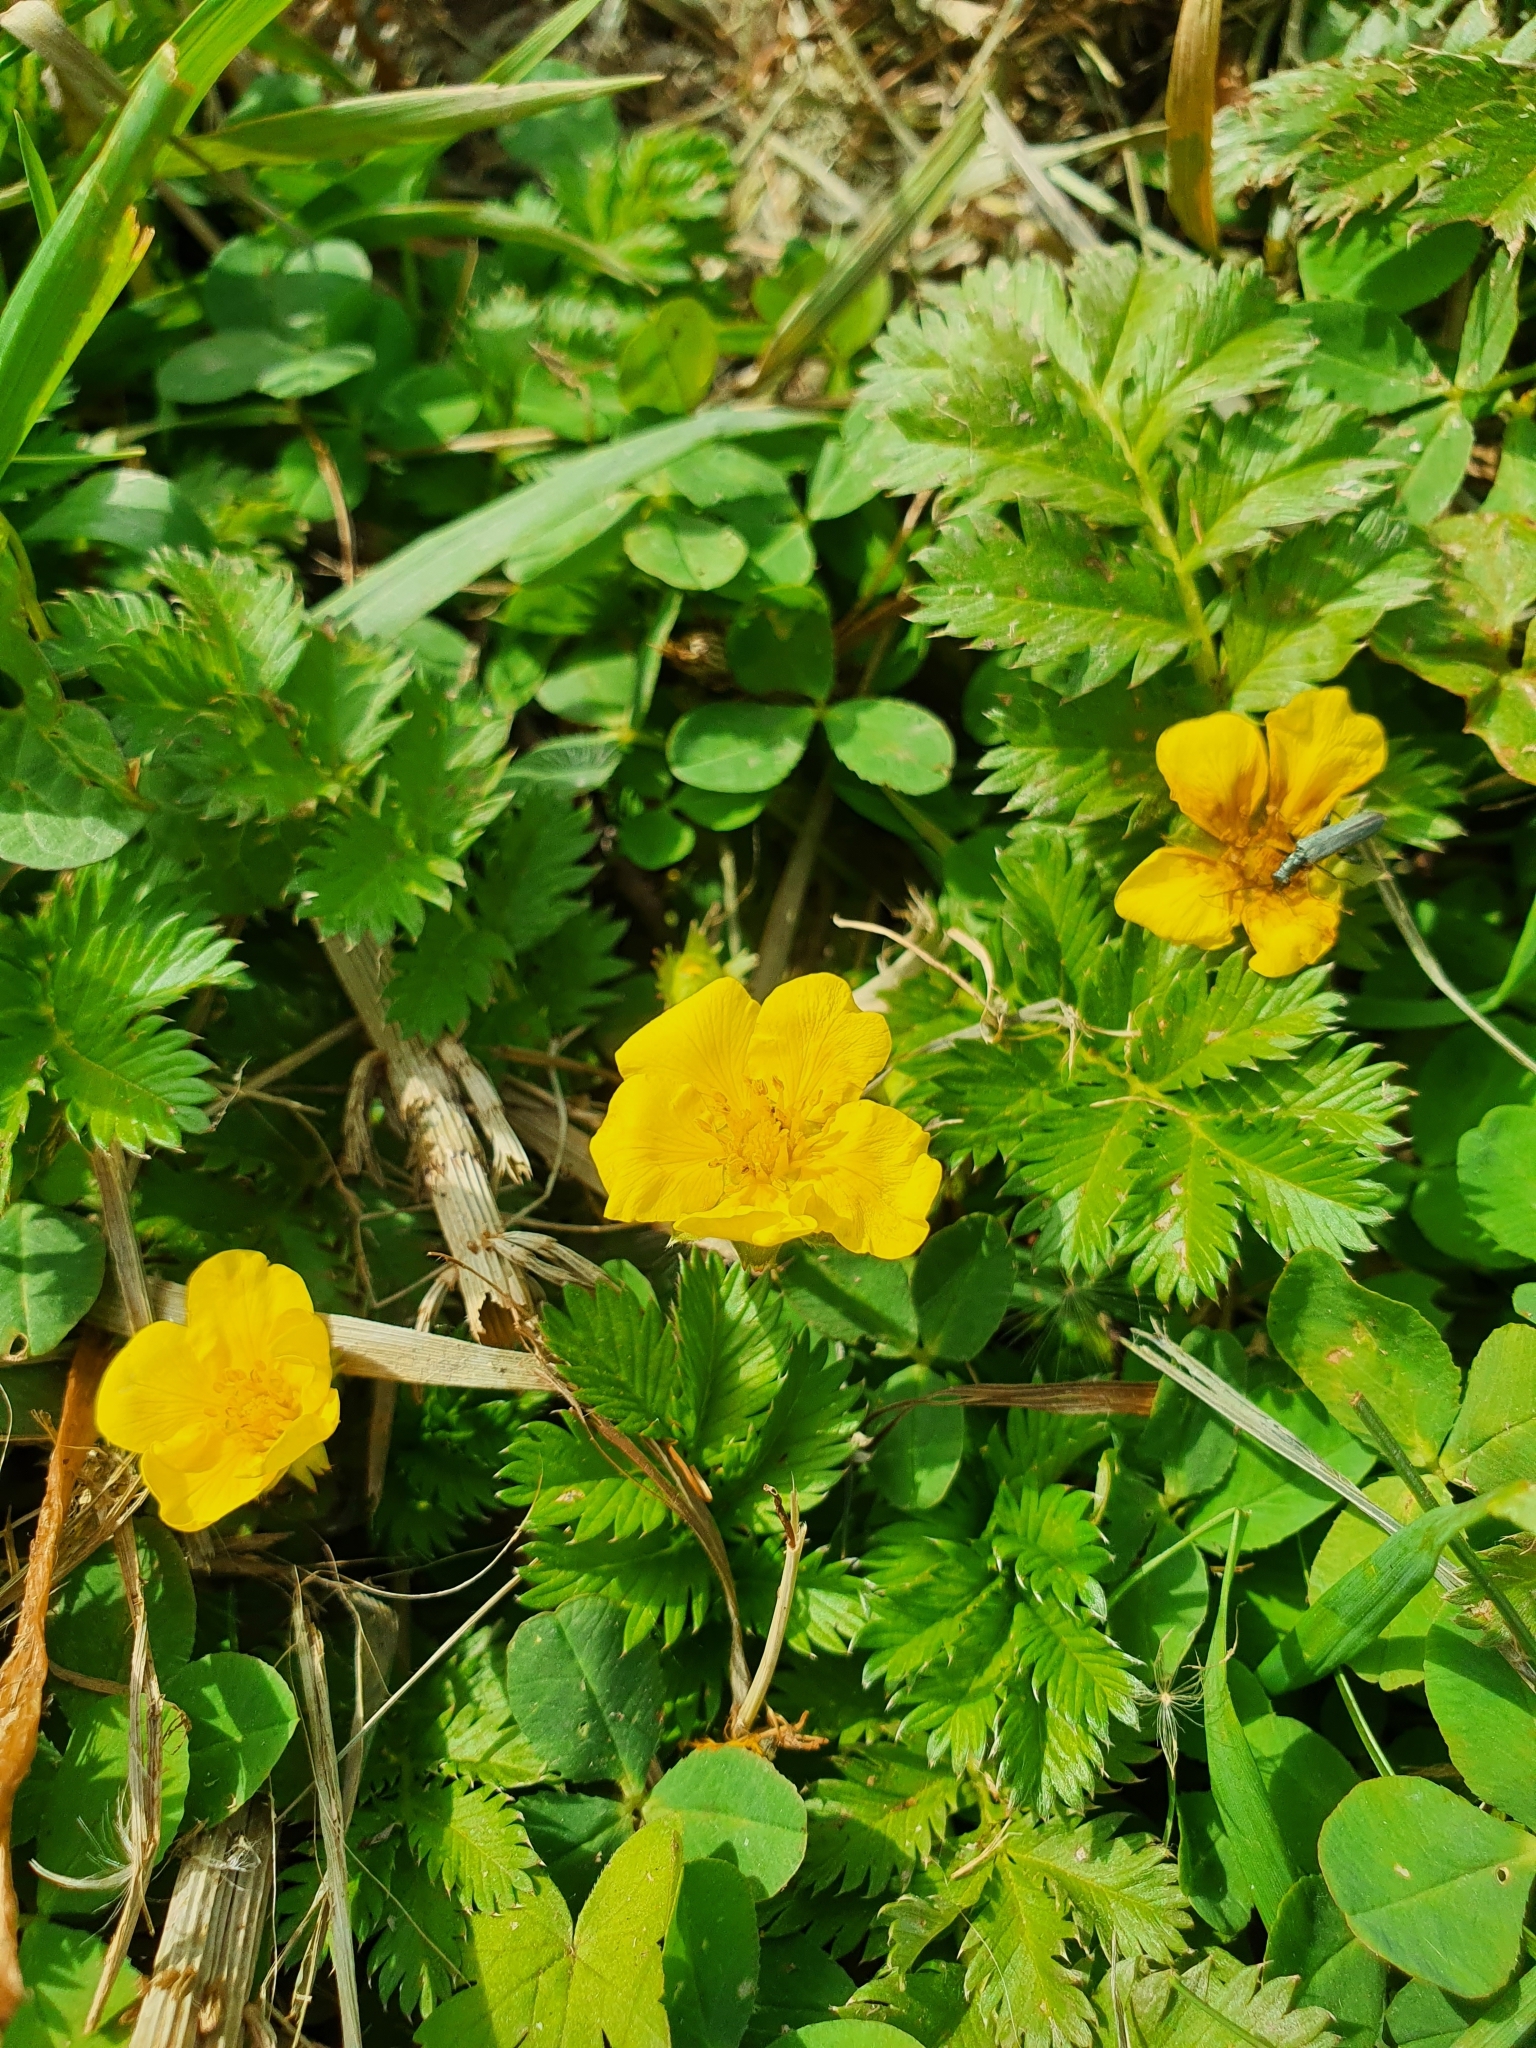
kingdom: Plantae
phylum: Tracheophyta
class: Magnoliopsida
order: Rosales
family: Rosaceae
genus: Argentina
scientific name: Argentina anserina
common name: Common silverweed
